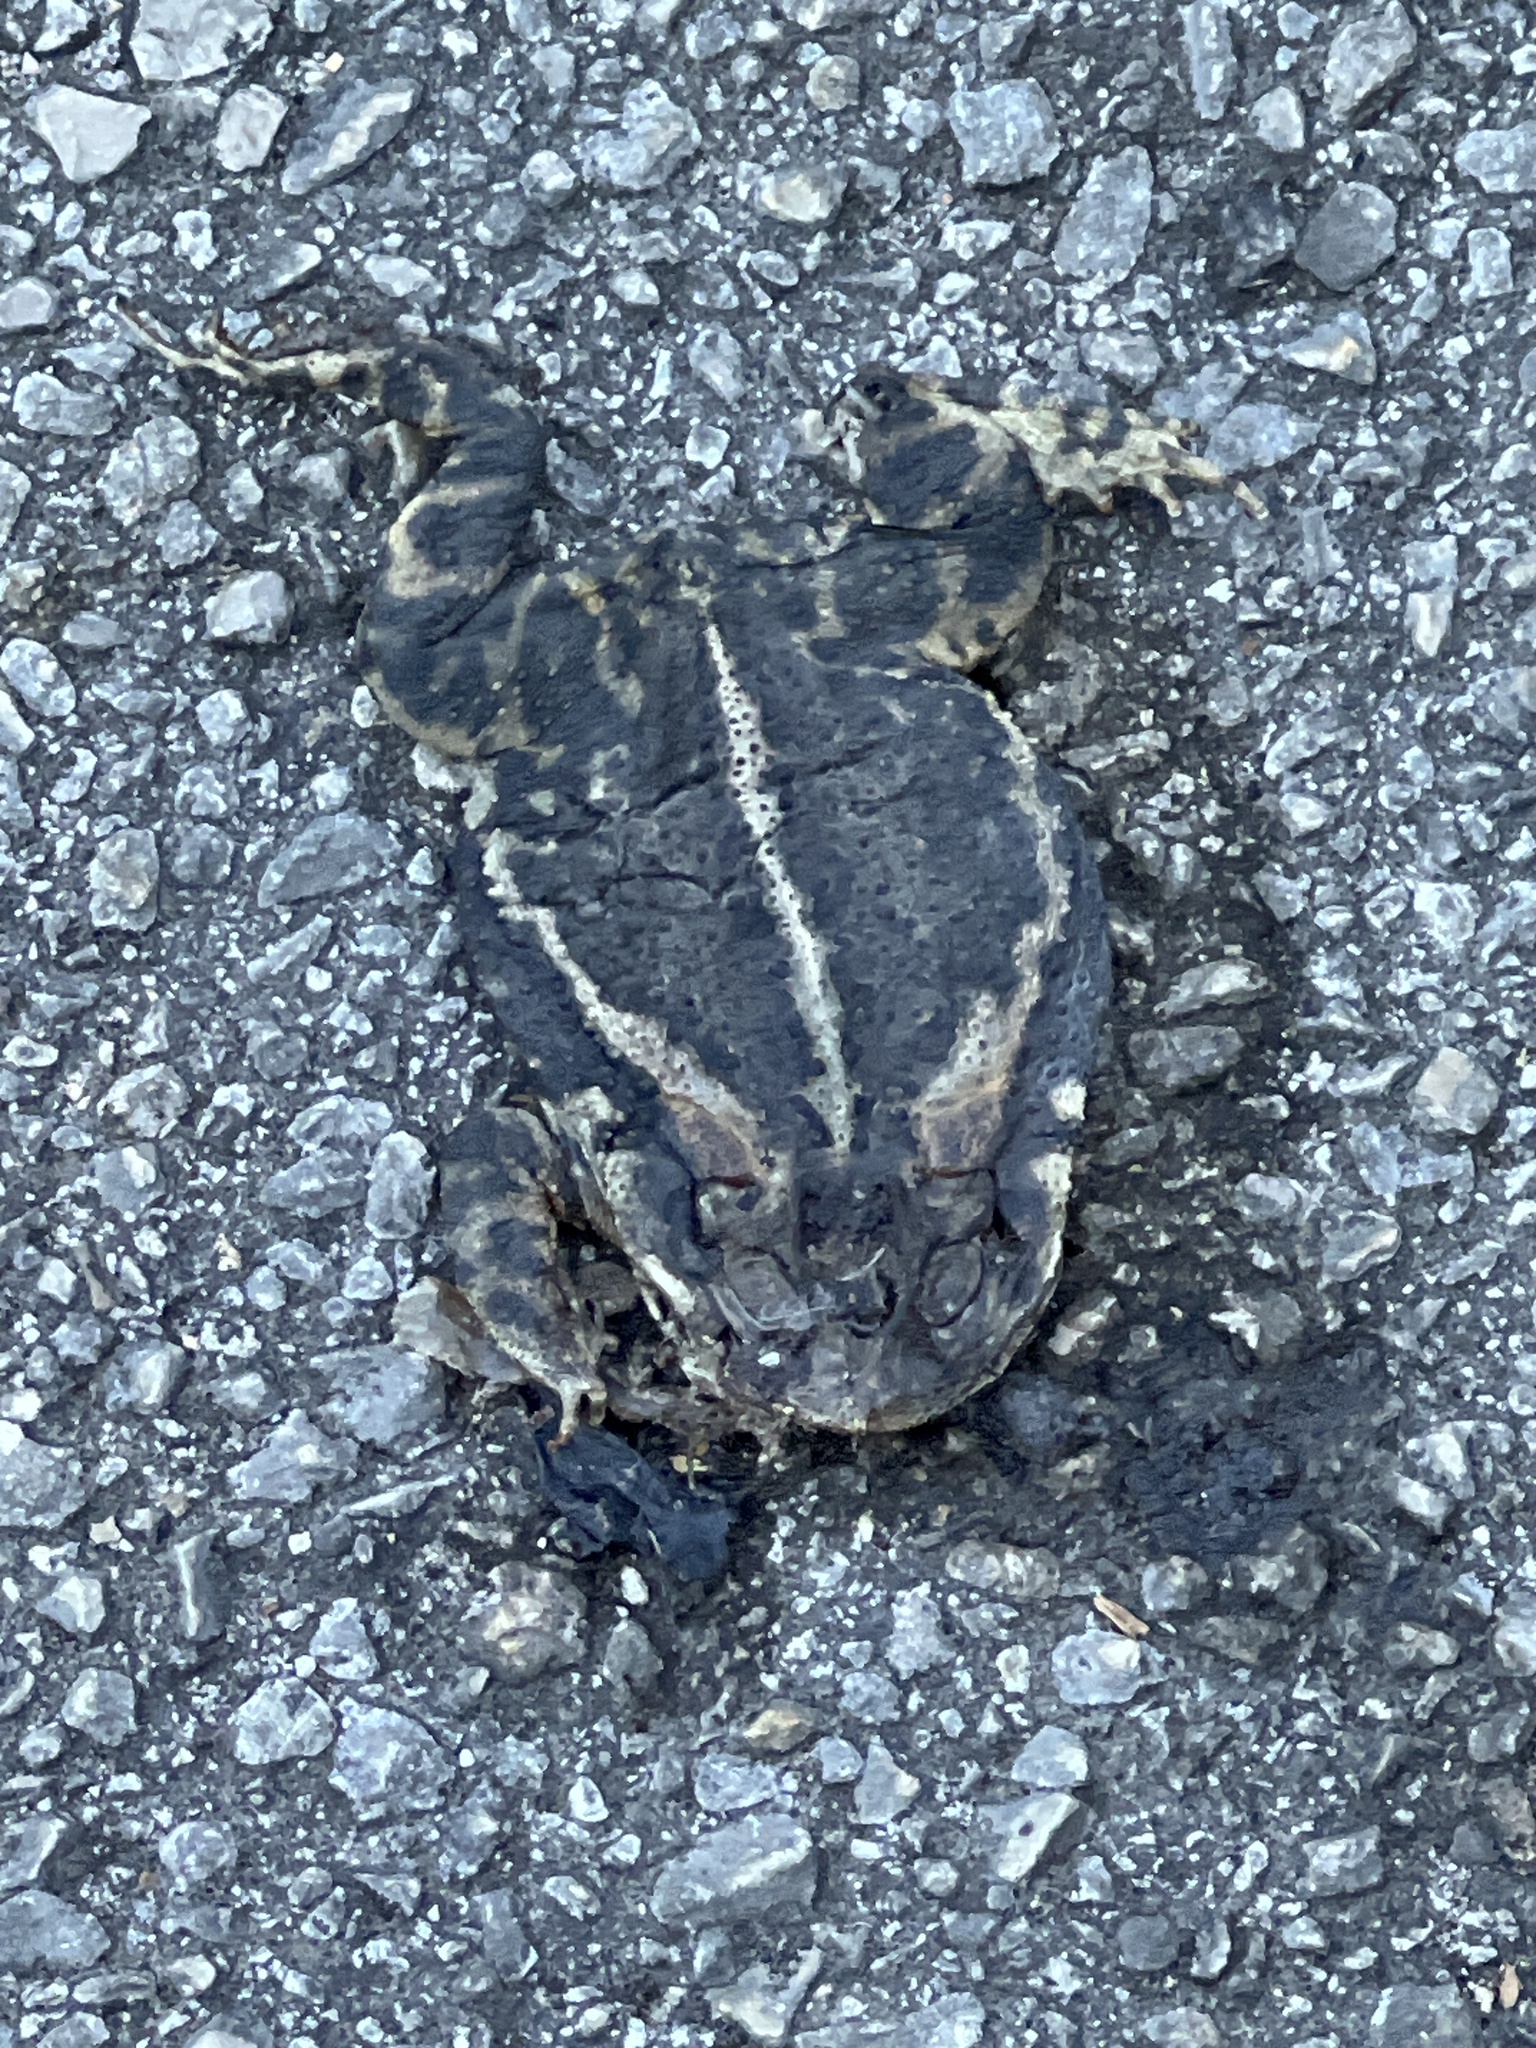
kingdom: Animalia
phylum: Chordata
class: Amphibia
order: Anura
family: Bufonidae
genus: Incilius
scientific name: Incilius nebulifer
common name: Gulf coast toad
